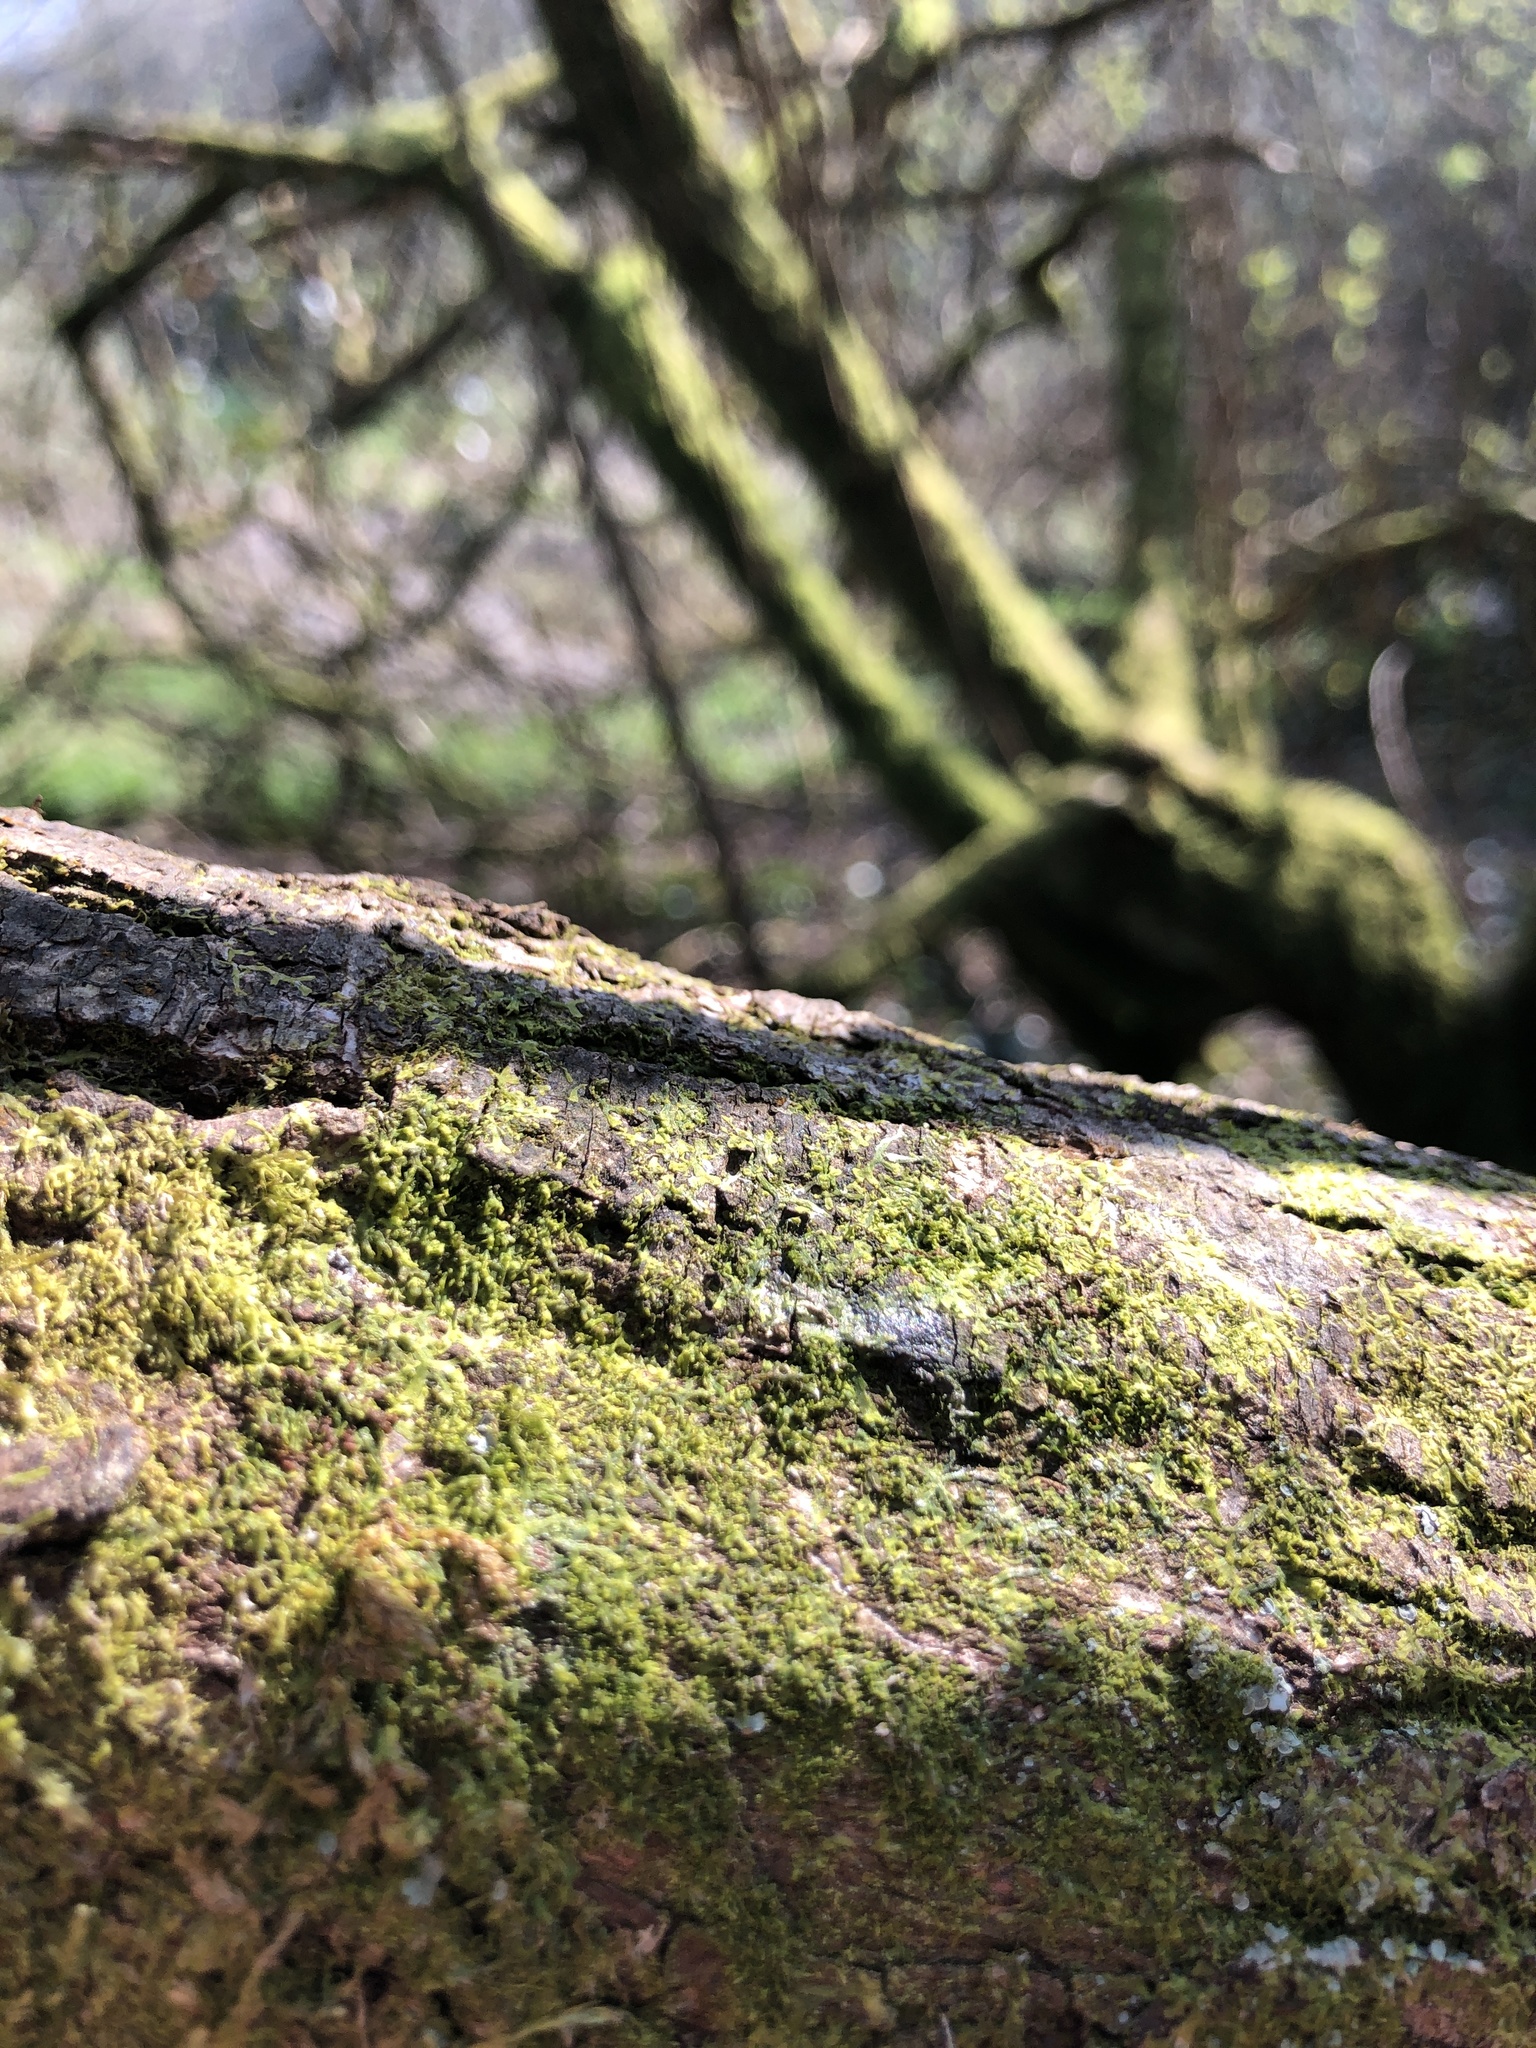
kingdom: Plantae
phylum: Marchantiophyta
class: Jungermanniopsida
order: Porellales
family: Lejeuneaceae
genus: Microlejeunea
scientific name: Microlejeunea ulicina
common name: Fairy beads
